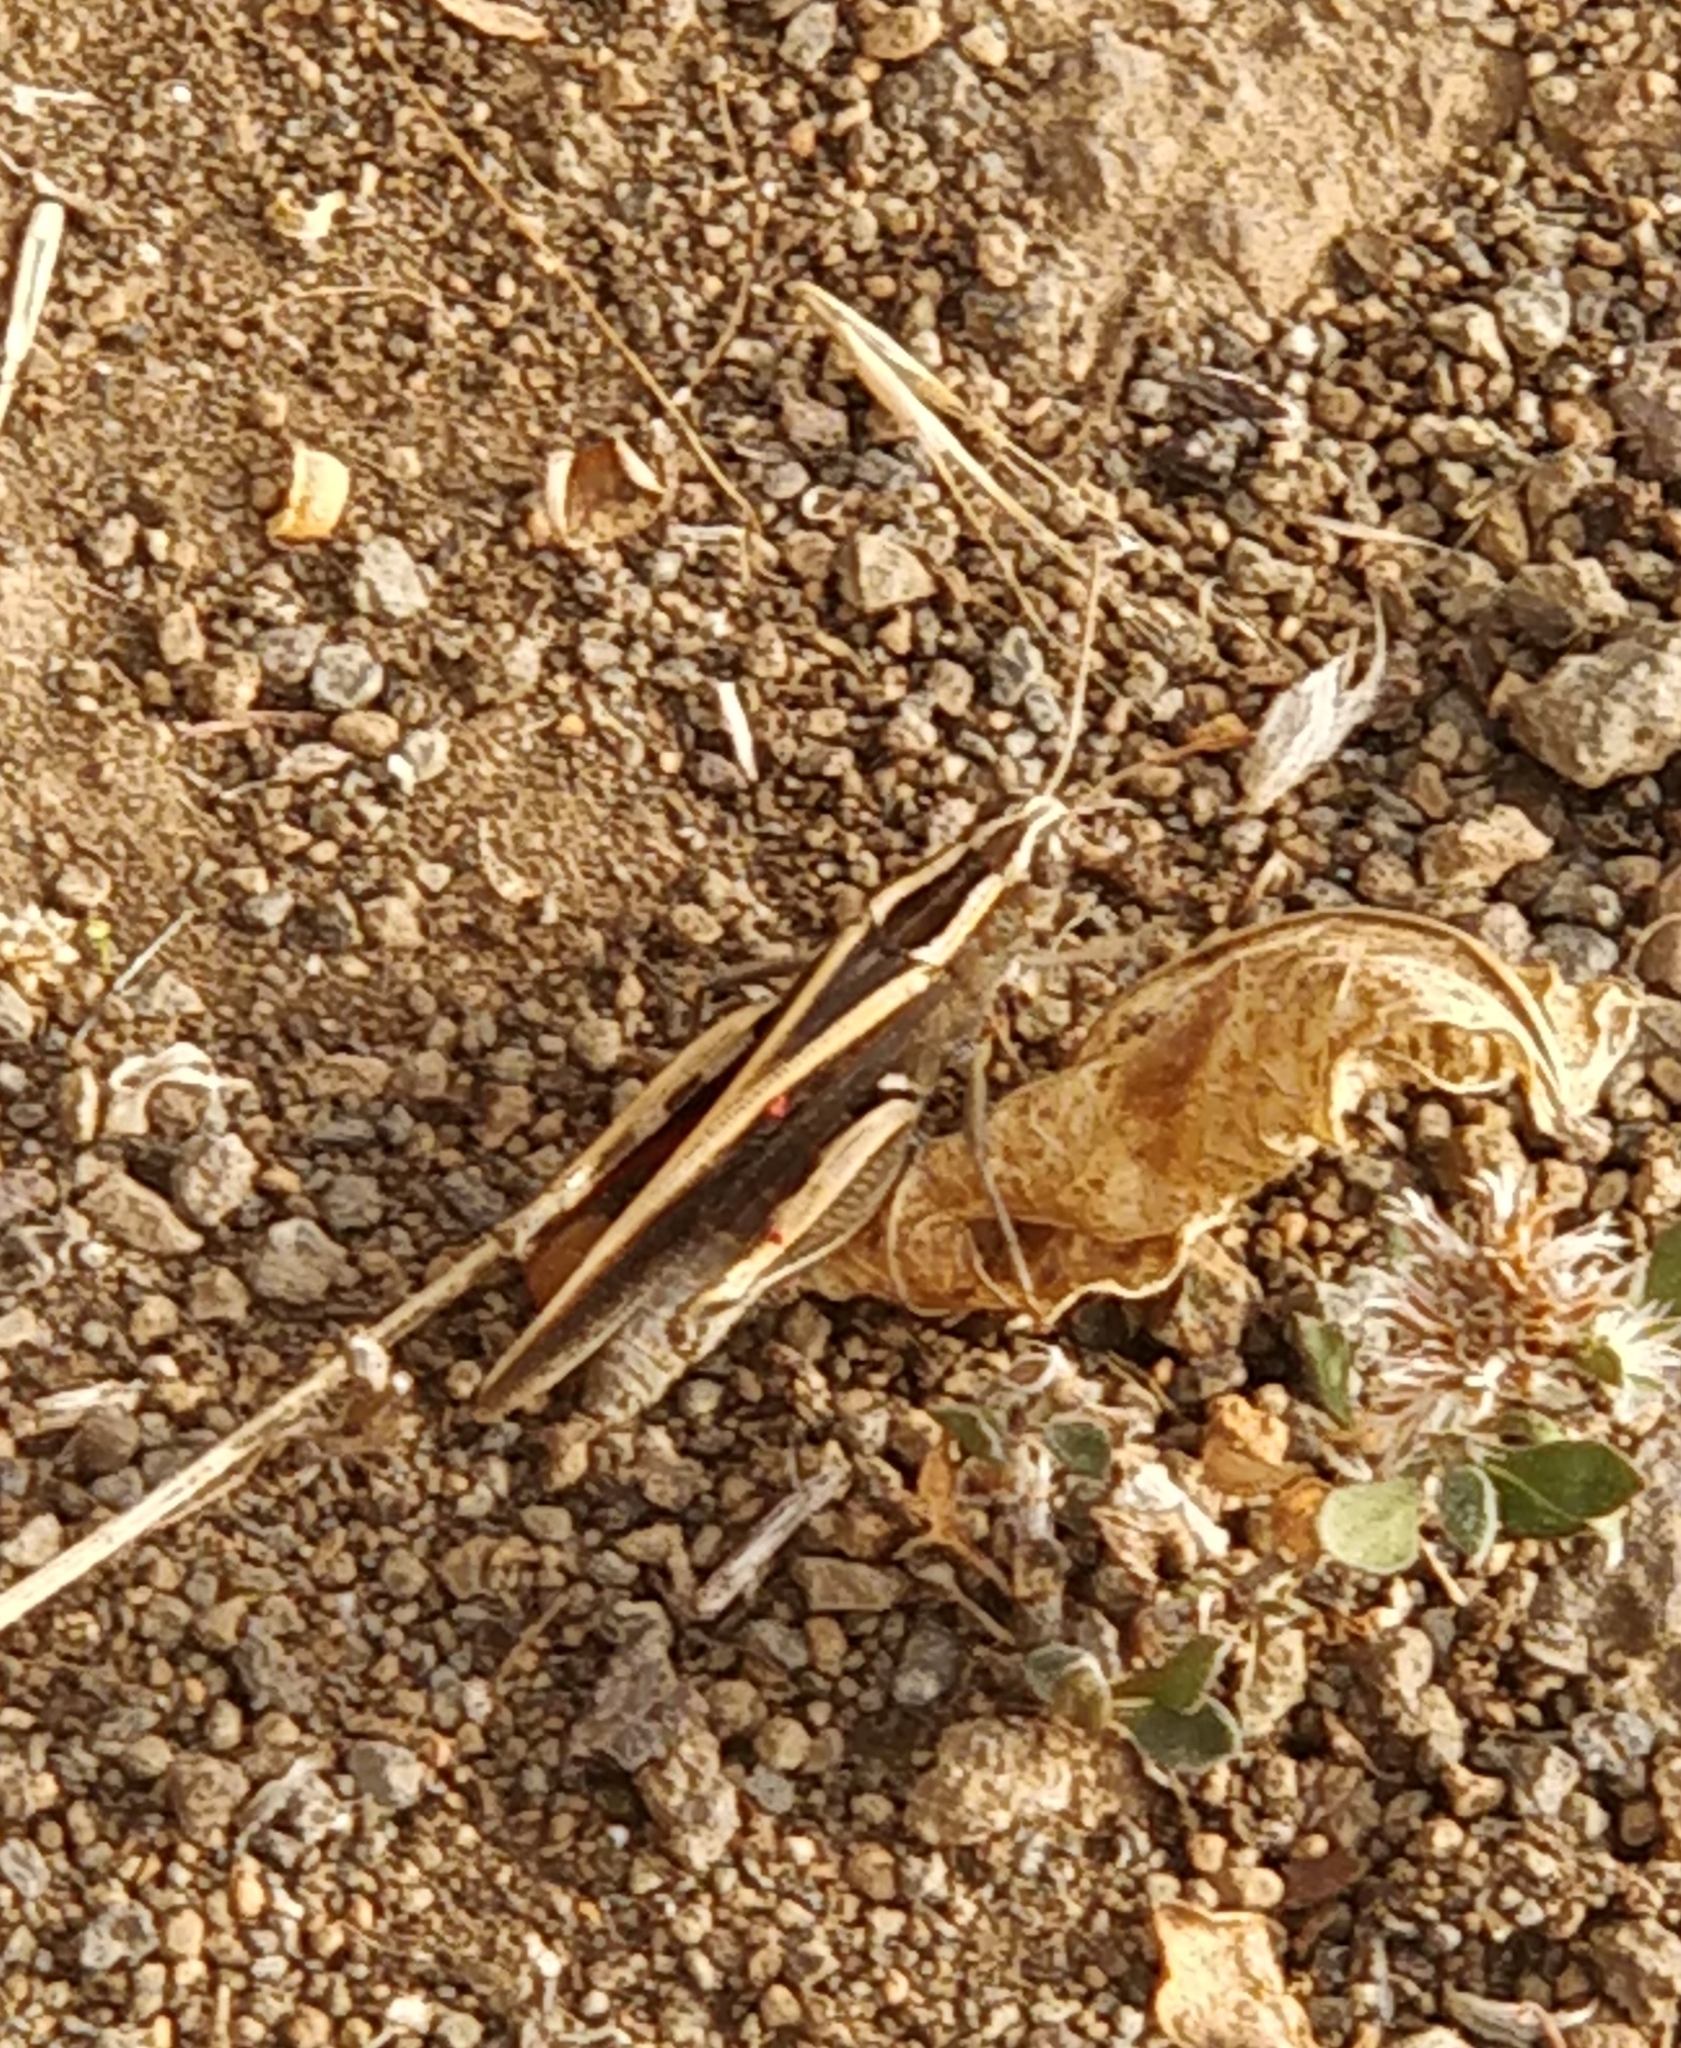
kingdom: Animalia
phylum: Arthropoda
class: Insecta
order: Orthoptera
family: Acrididae
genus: Calliptamus
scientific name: Calliptamus plebeius
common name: Canarian pincer grasshopper
